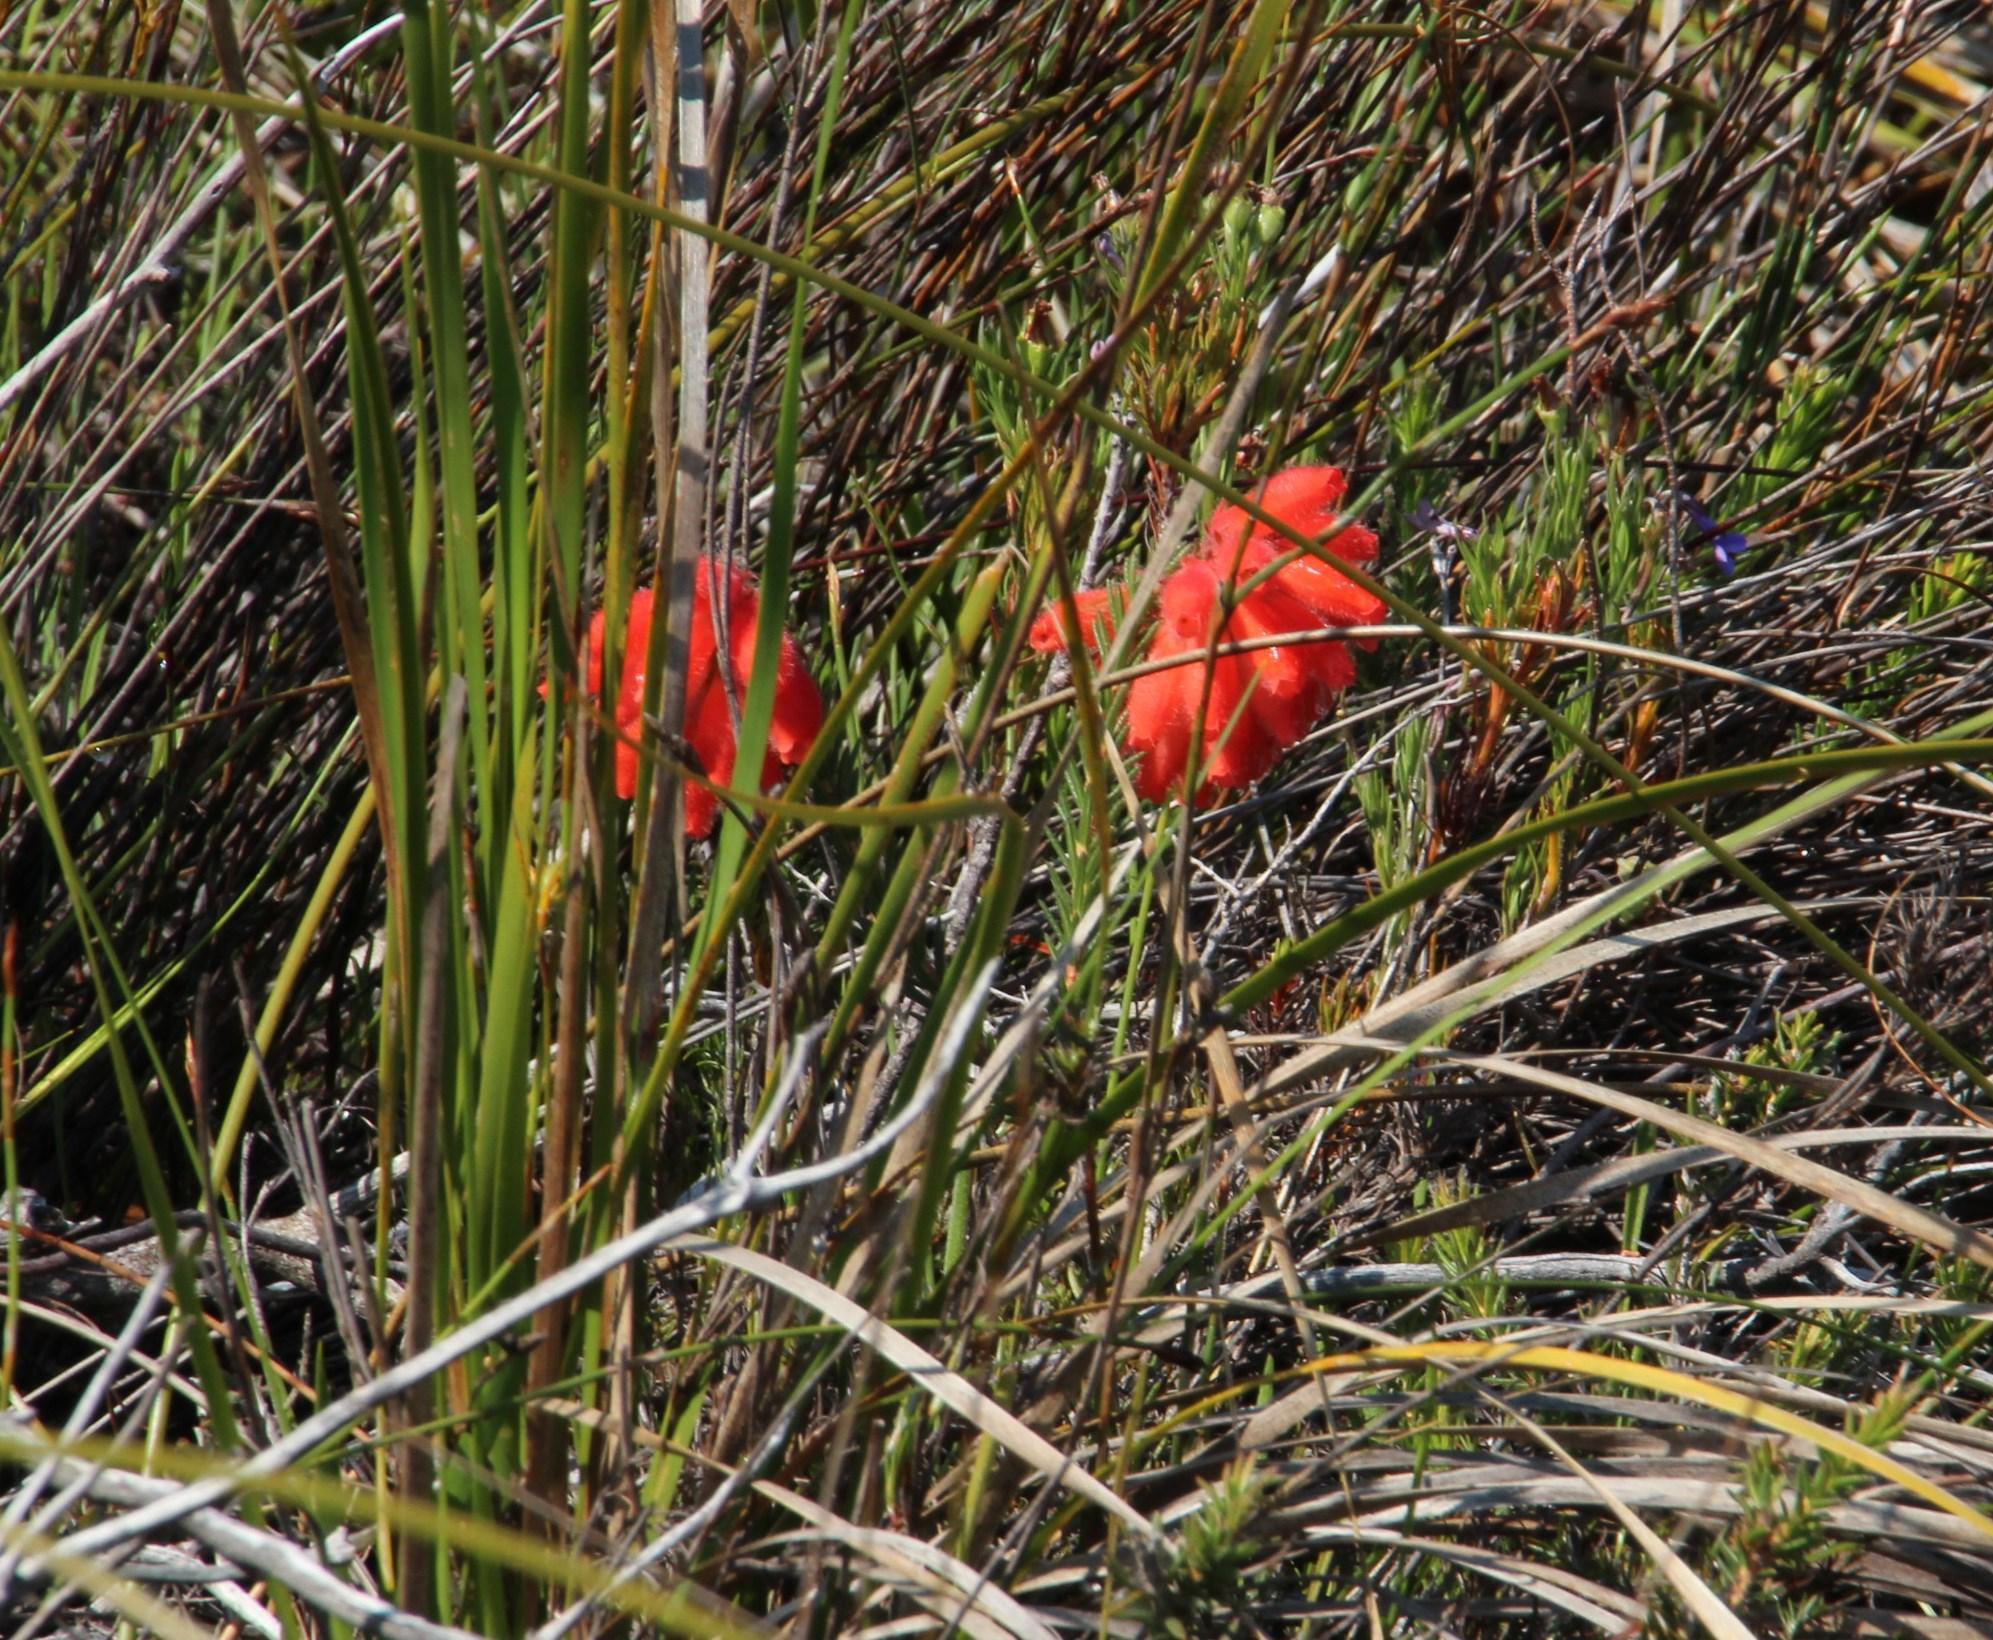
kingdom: Plantae
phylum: Tracheophyta
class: Magnoliopsida
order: Ericales
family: Ericaceae
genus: Erica
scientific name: Erica cerinthoides
